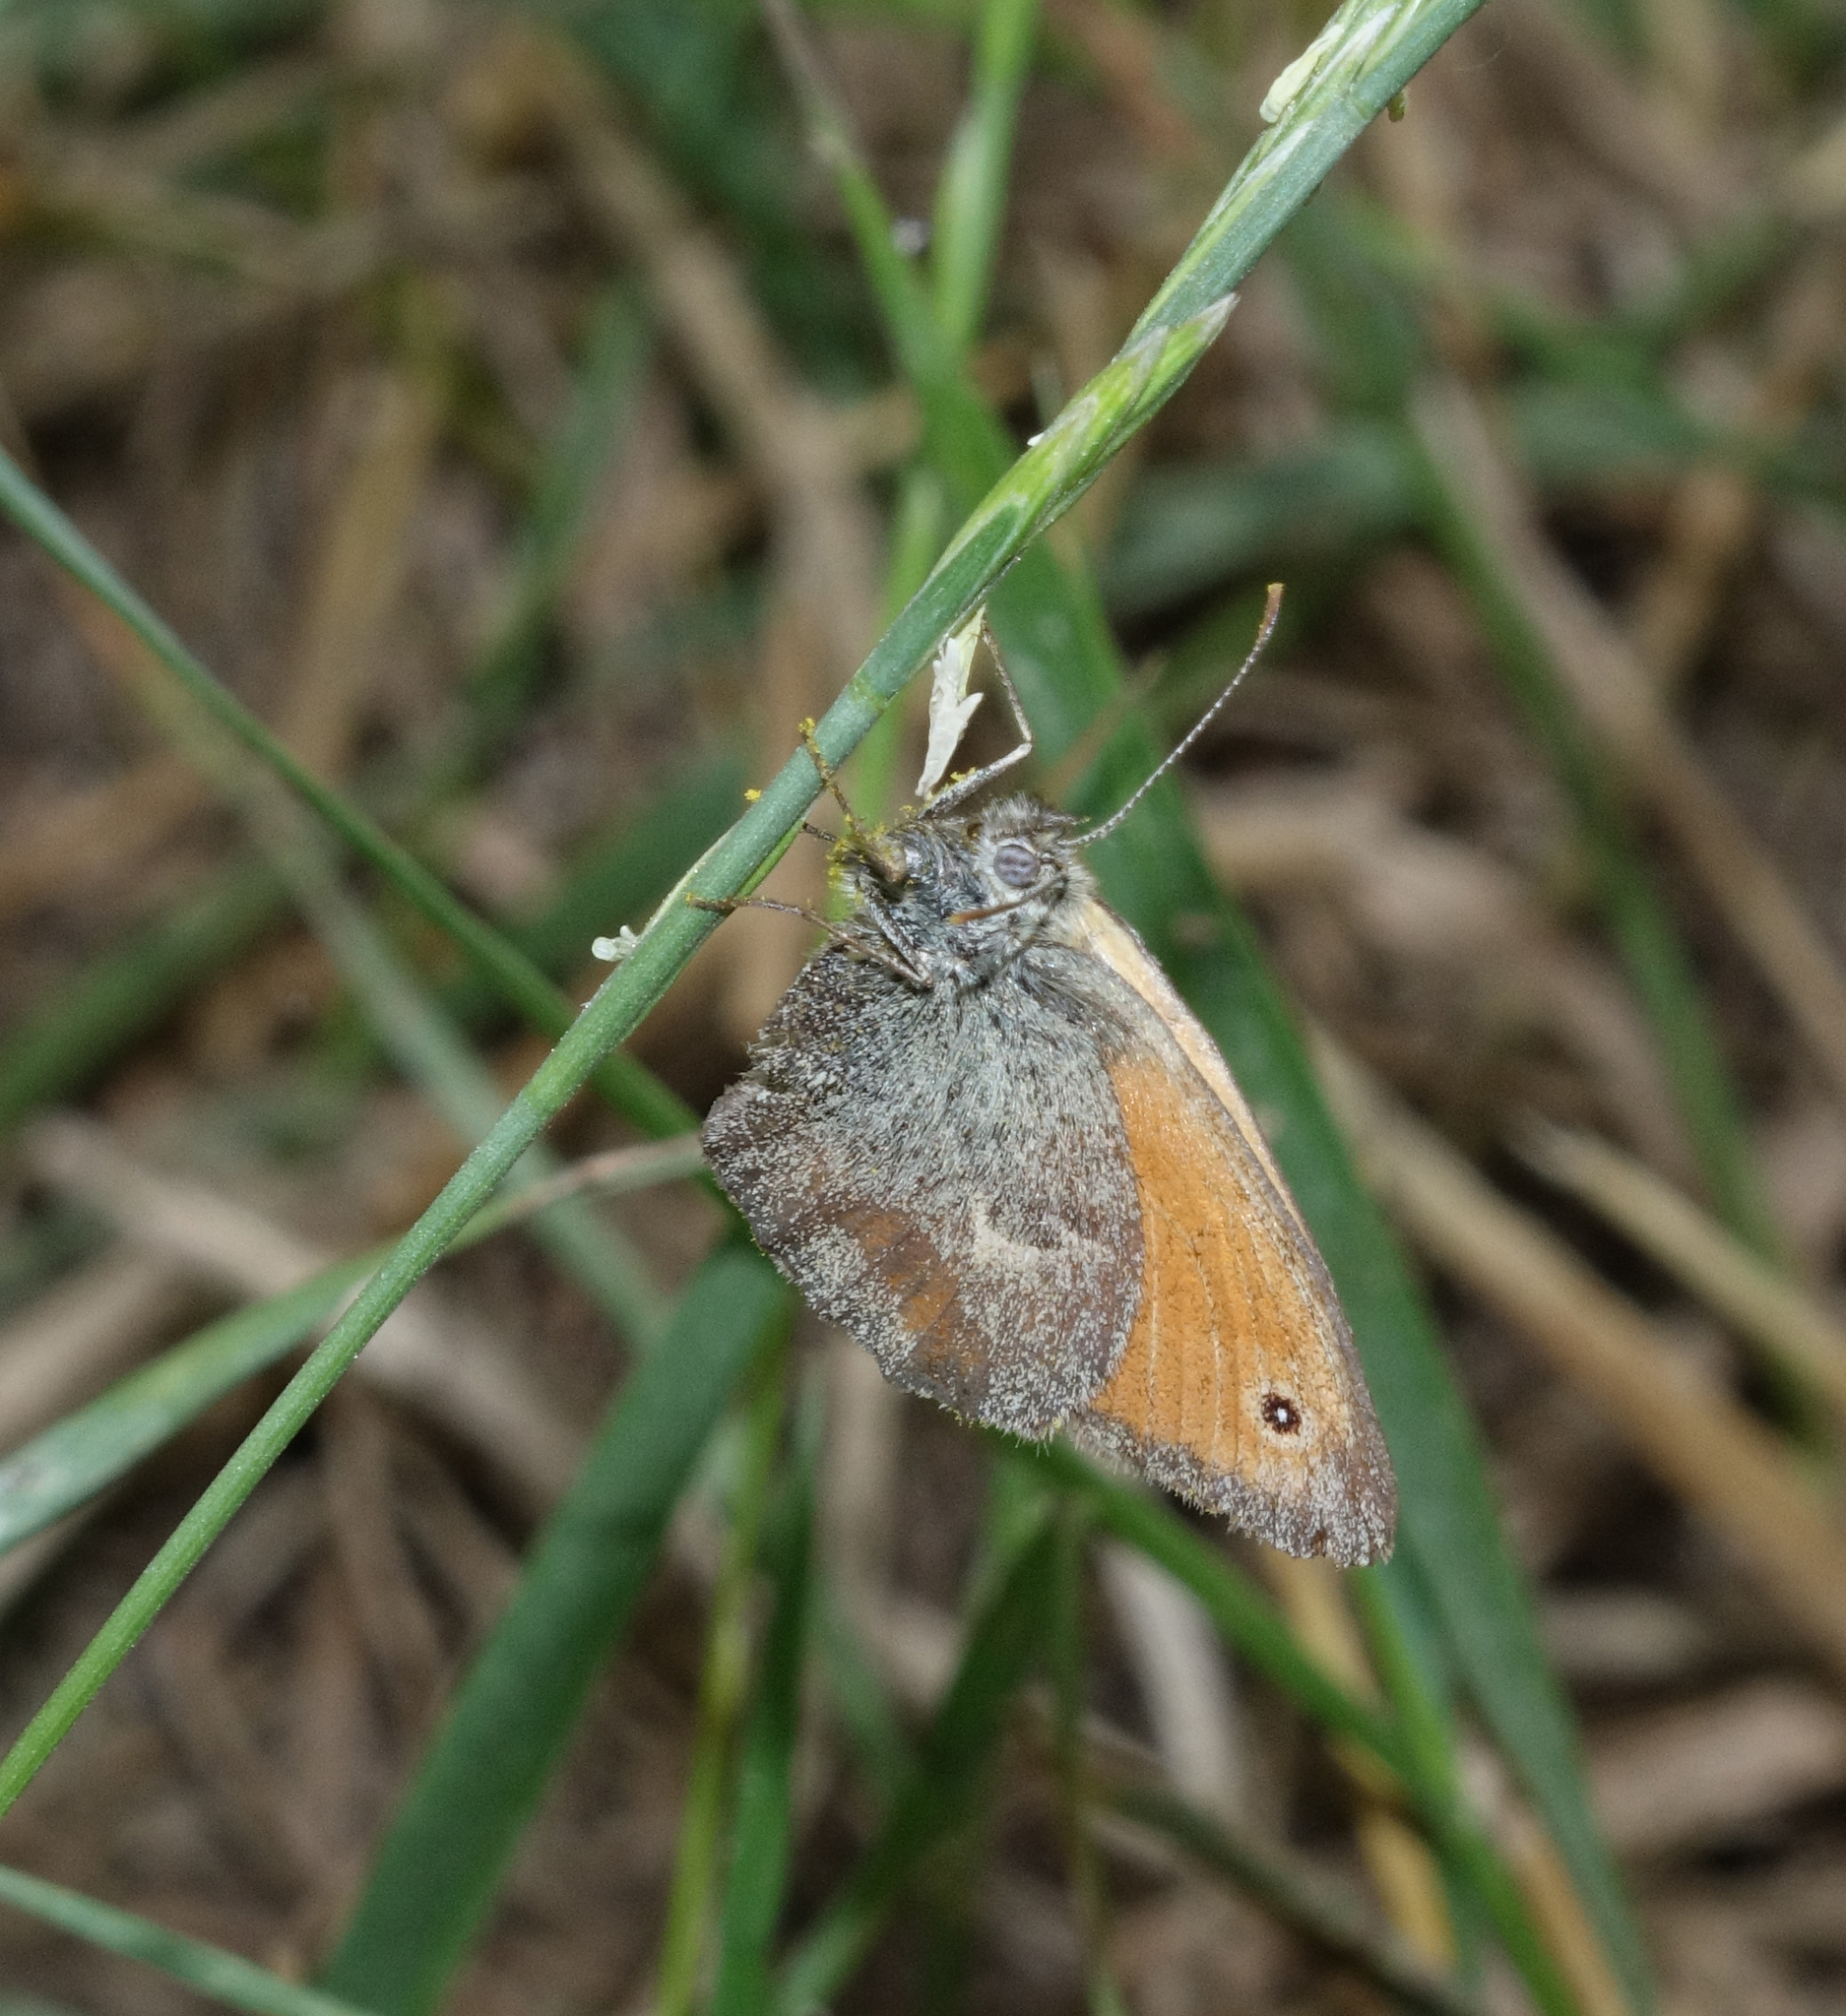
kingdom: Animalia
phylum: Arthropoda
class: Insecta
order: Lepidoptera
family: Nymphalidae
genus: Coenonympha
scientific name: Coenonympha pamphilus
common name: Small heath
